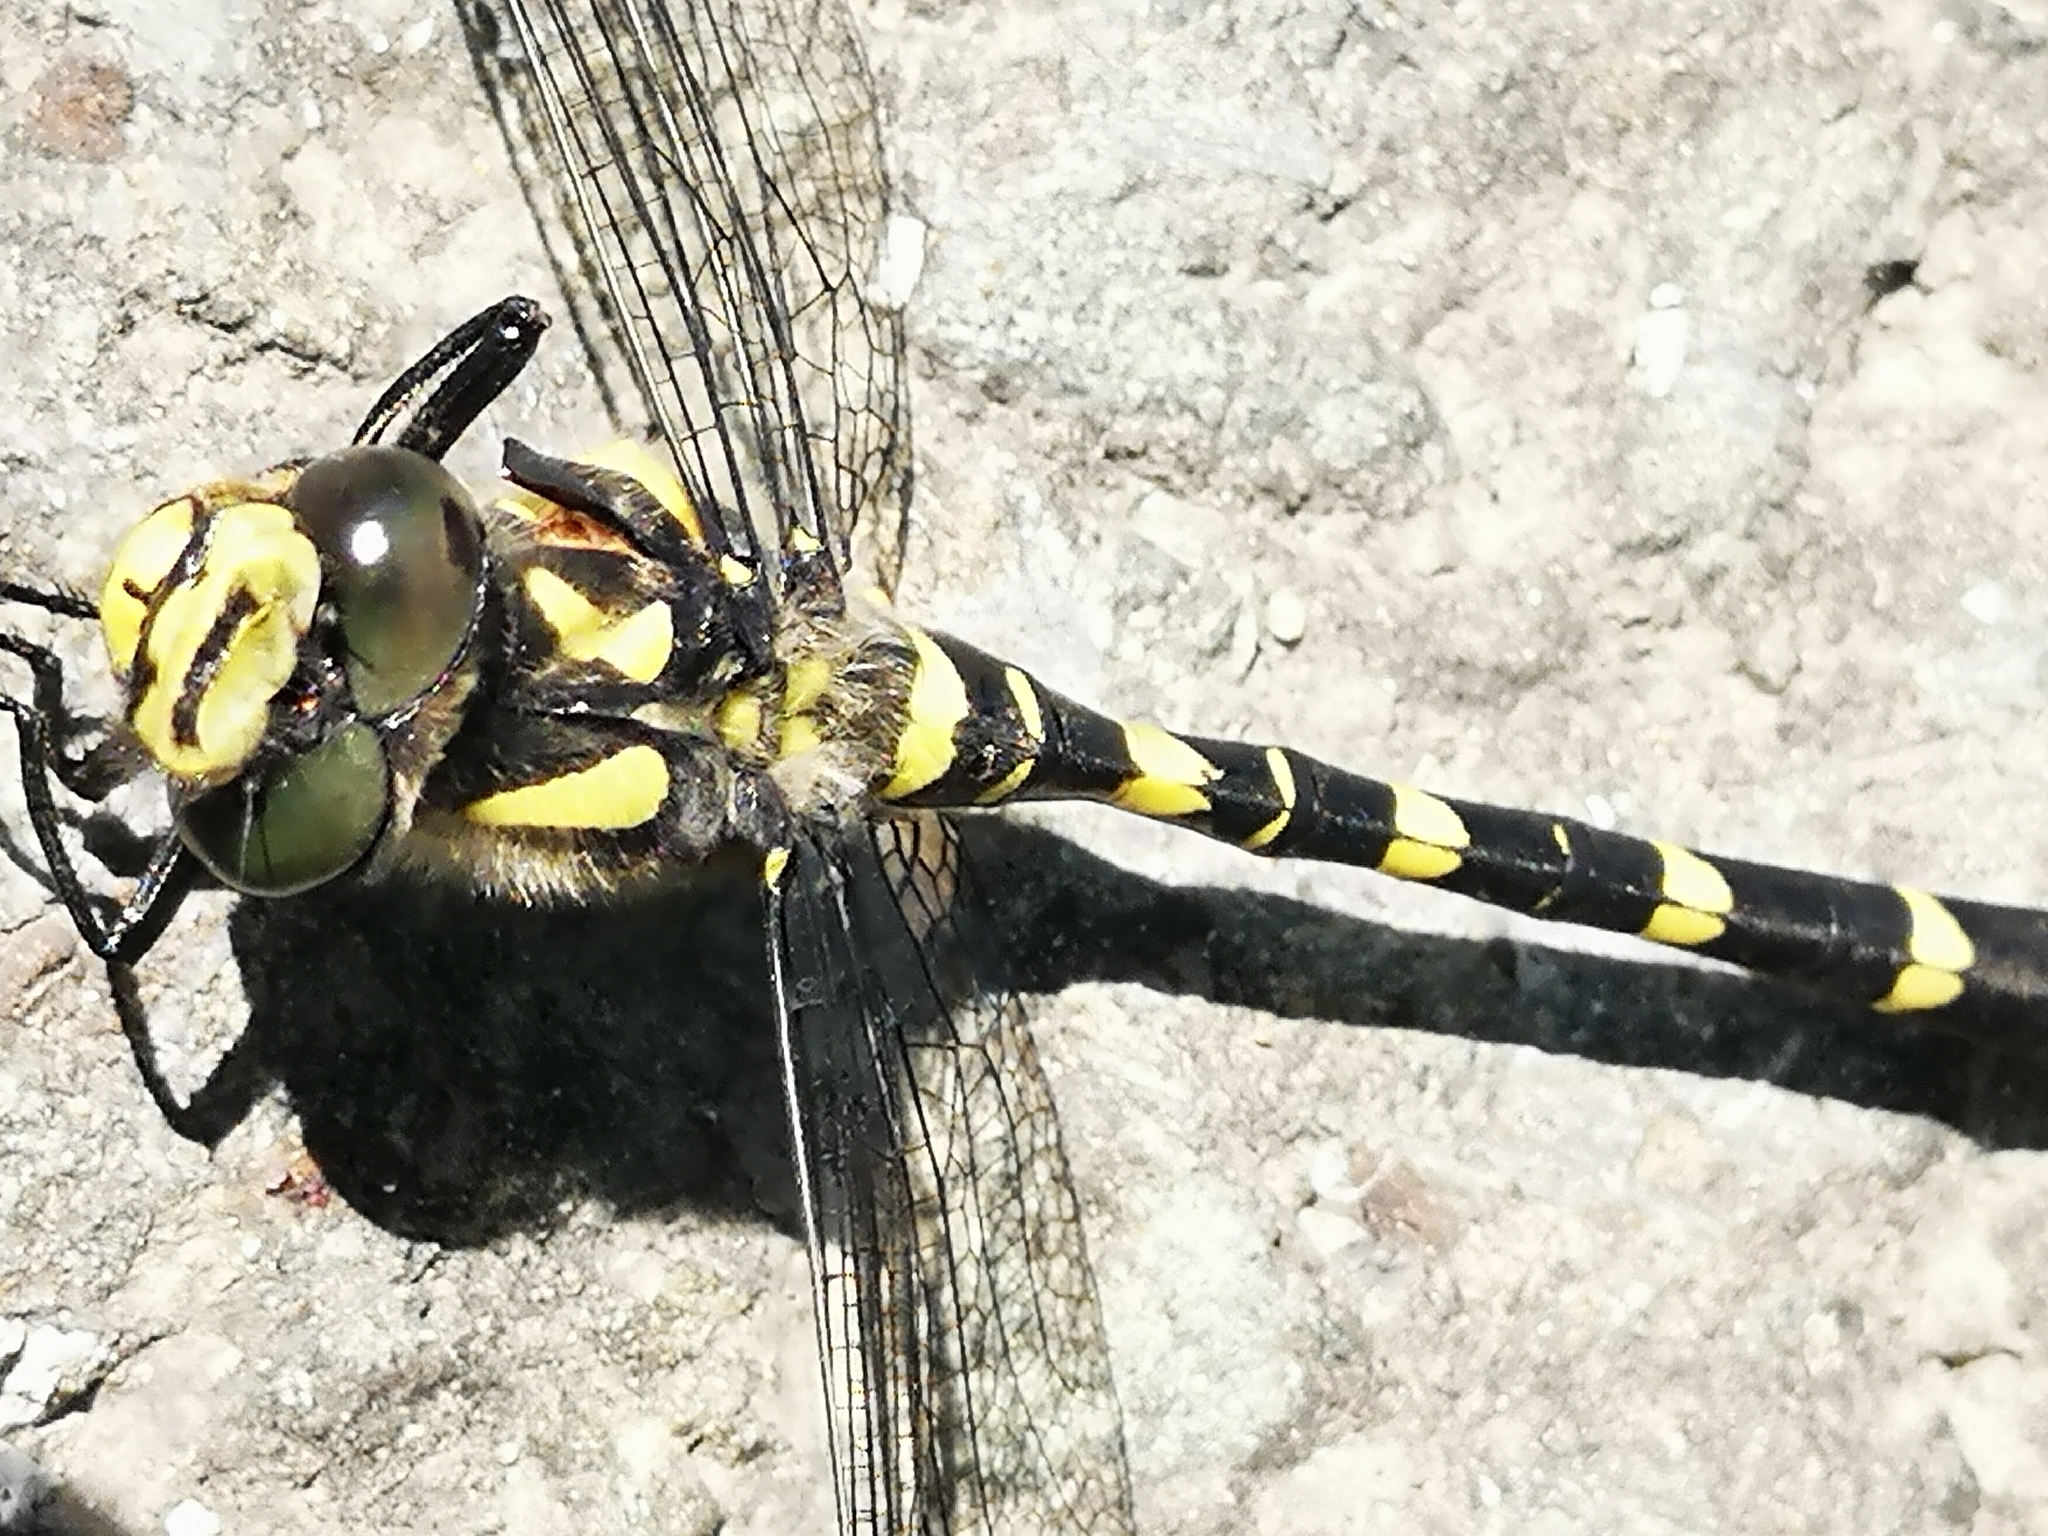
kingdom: Animalia
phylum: Arthropoda
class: Insecta
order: Odonata
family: Cordulegastridae
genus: Cordulegaster
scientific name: Cordulegaster bidentata
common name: Sombre goldenring
